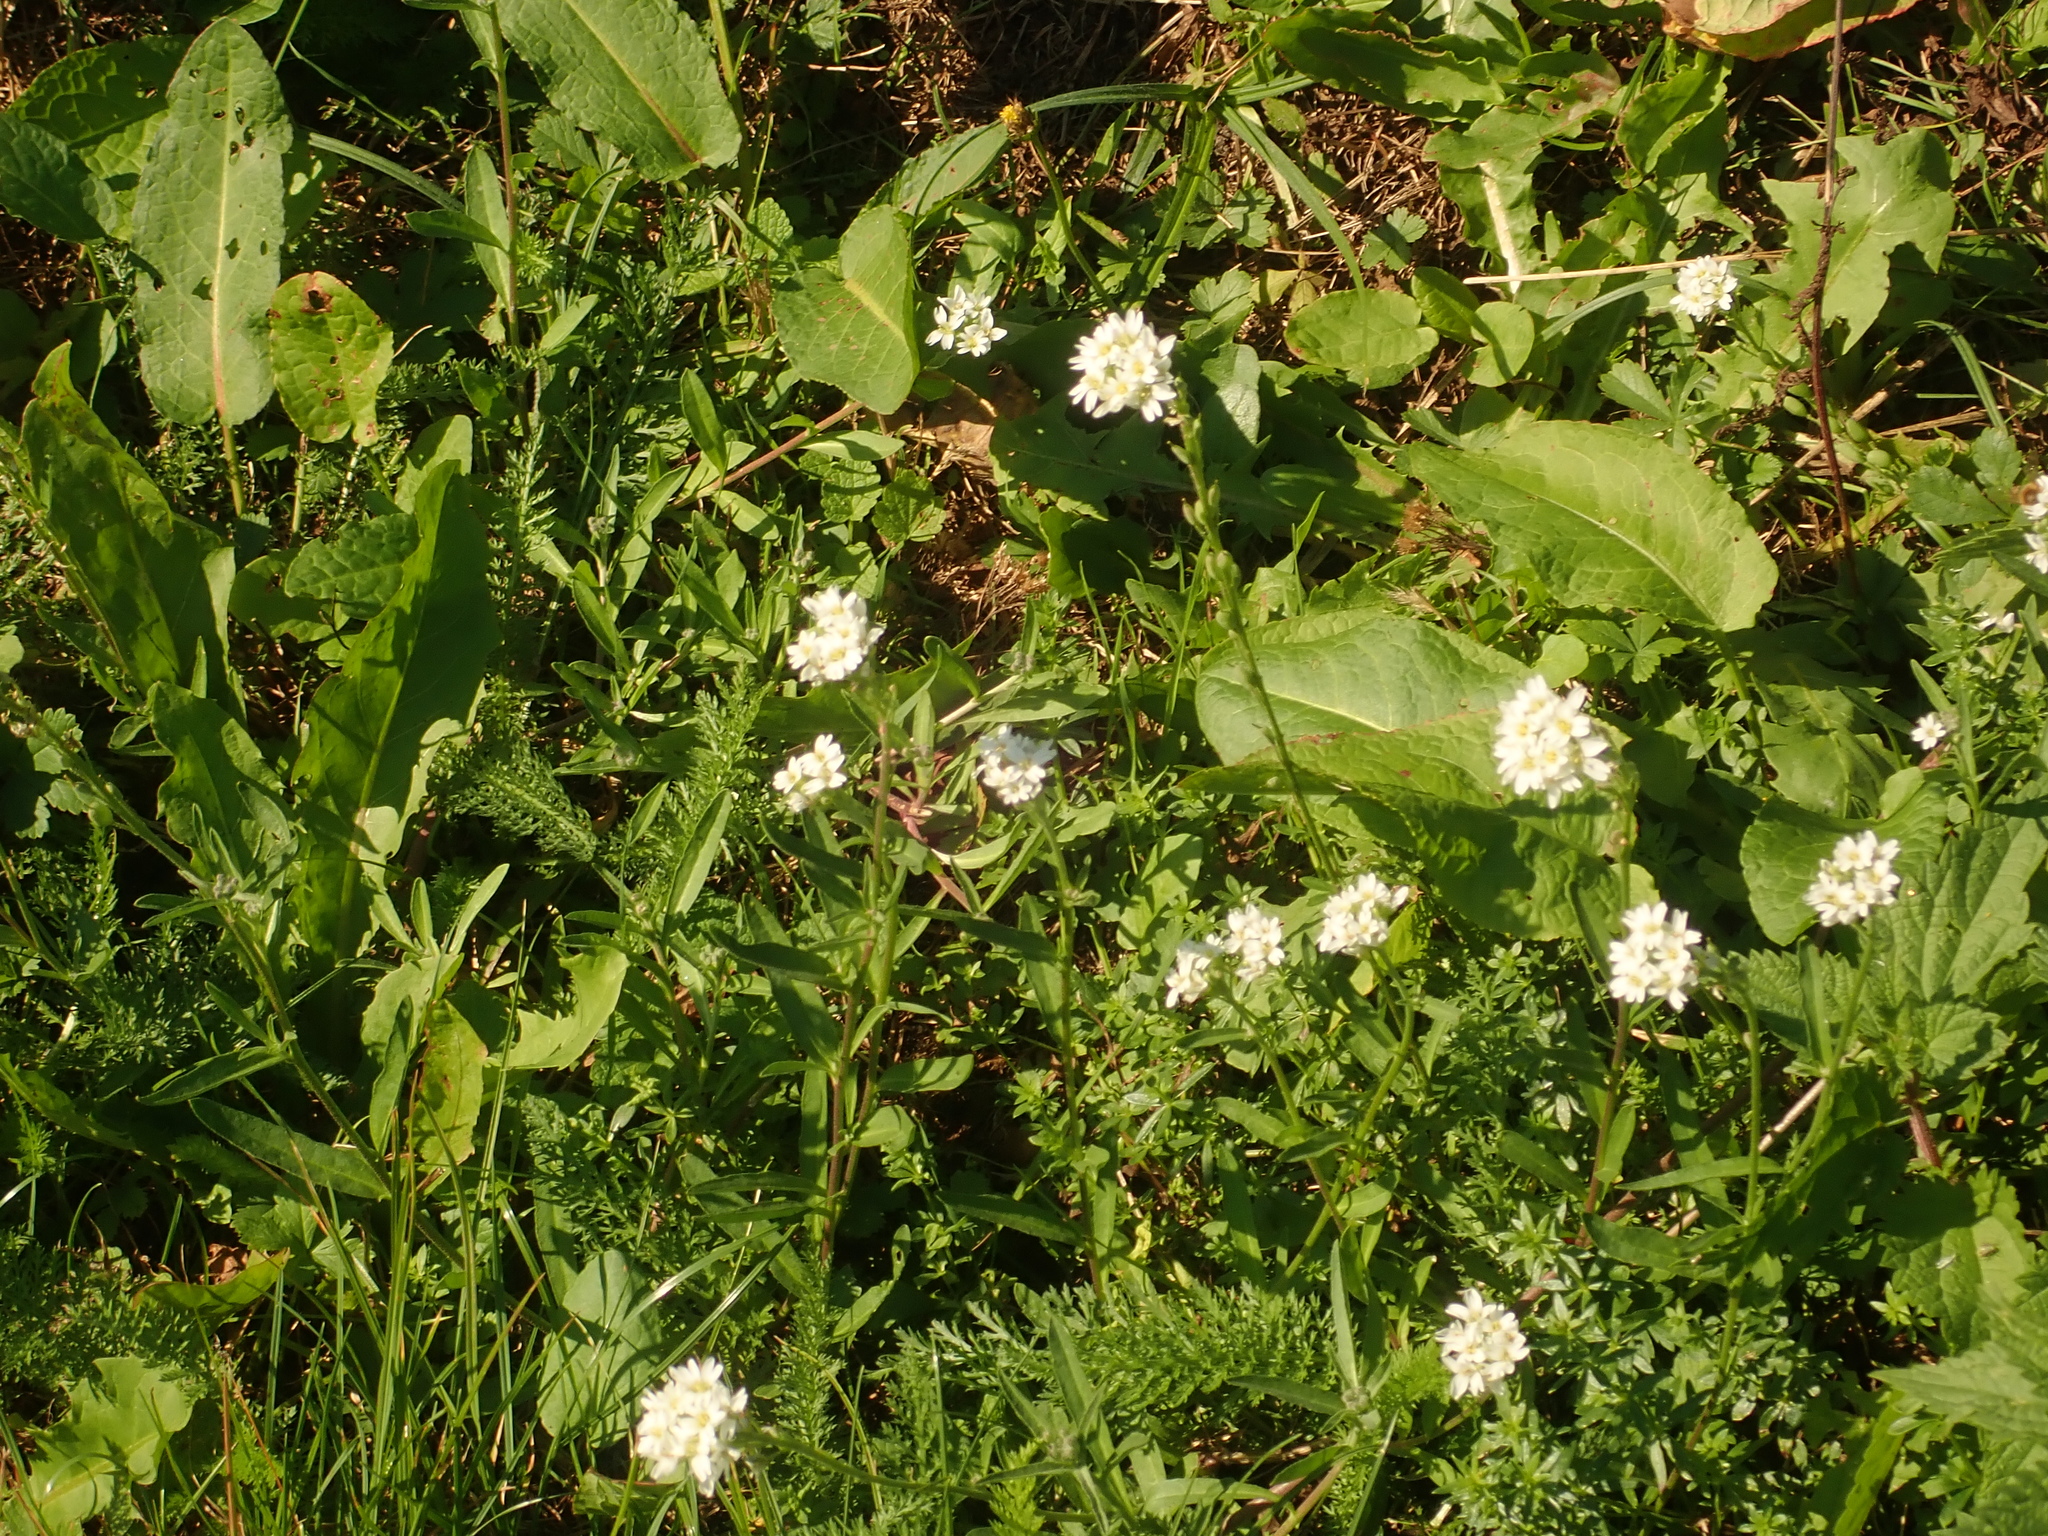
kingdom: Plantae
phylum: Tracheophyta
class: Magnoliopsida
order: Brassicales
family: Brassicaceae
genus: Berteroa
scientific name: Berteroa incana
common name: Hoary alison
